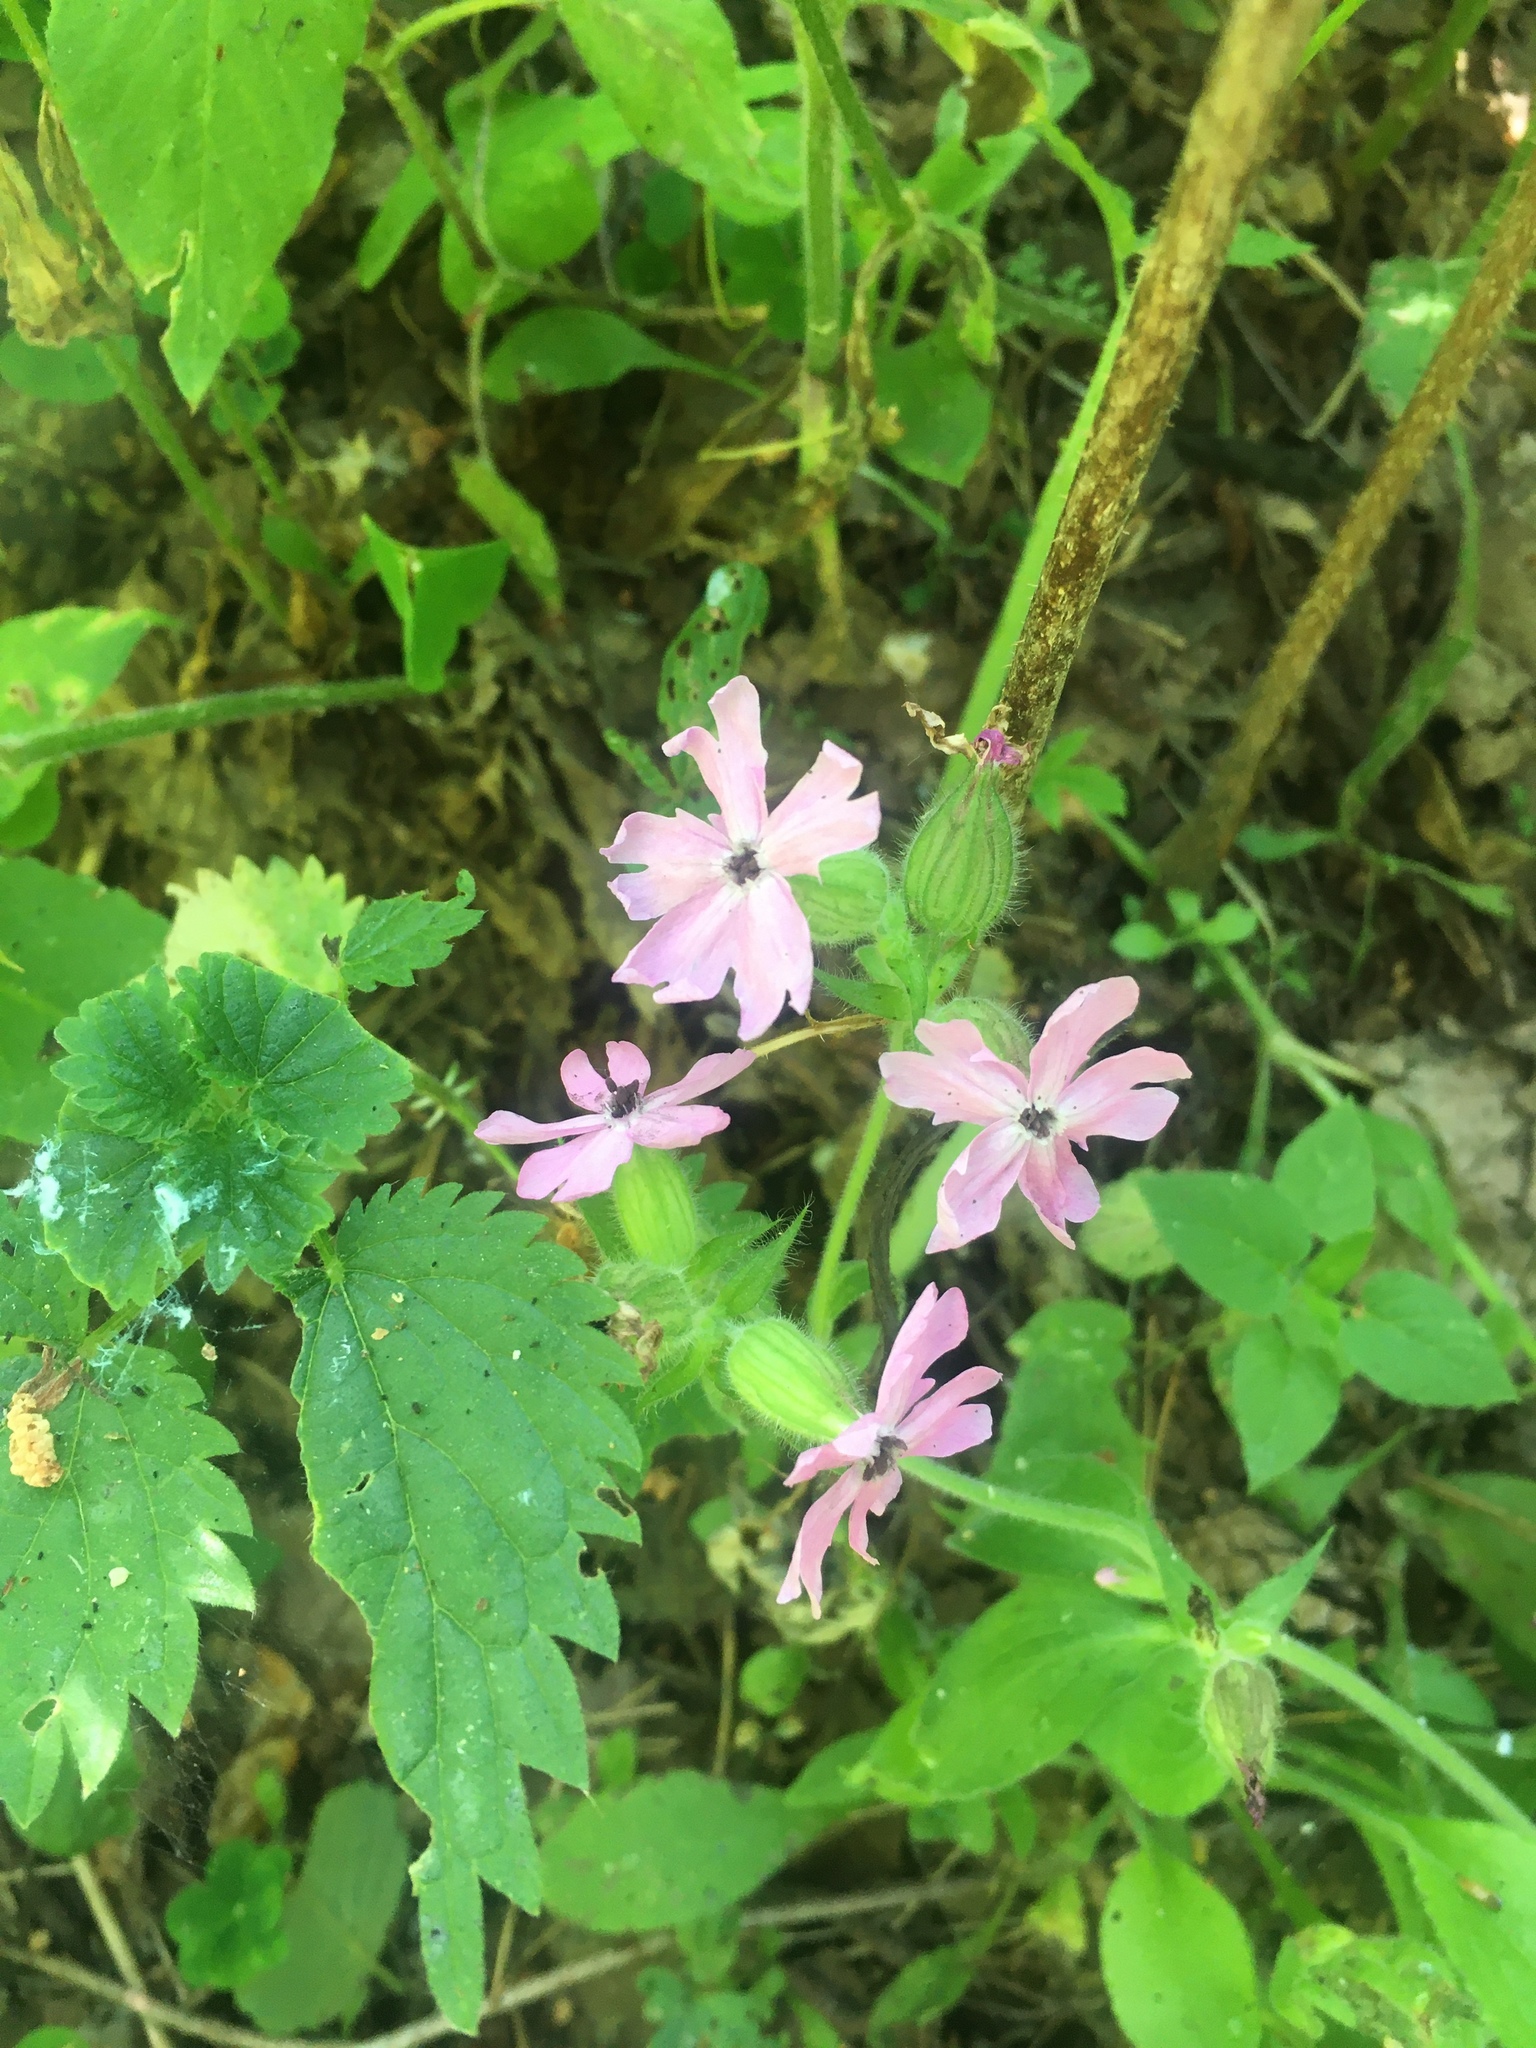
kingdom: Plantae
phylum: Tracheophyta
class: Magnoliopsida
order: Caryophyllales
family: Caryophyllaceae
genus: Silene
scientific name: Silene dioica
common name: Red campion
